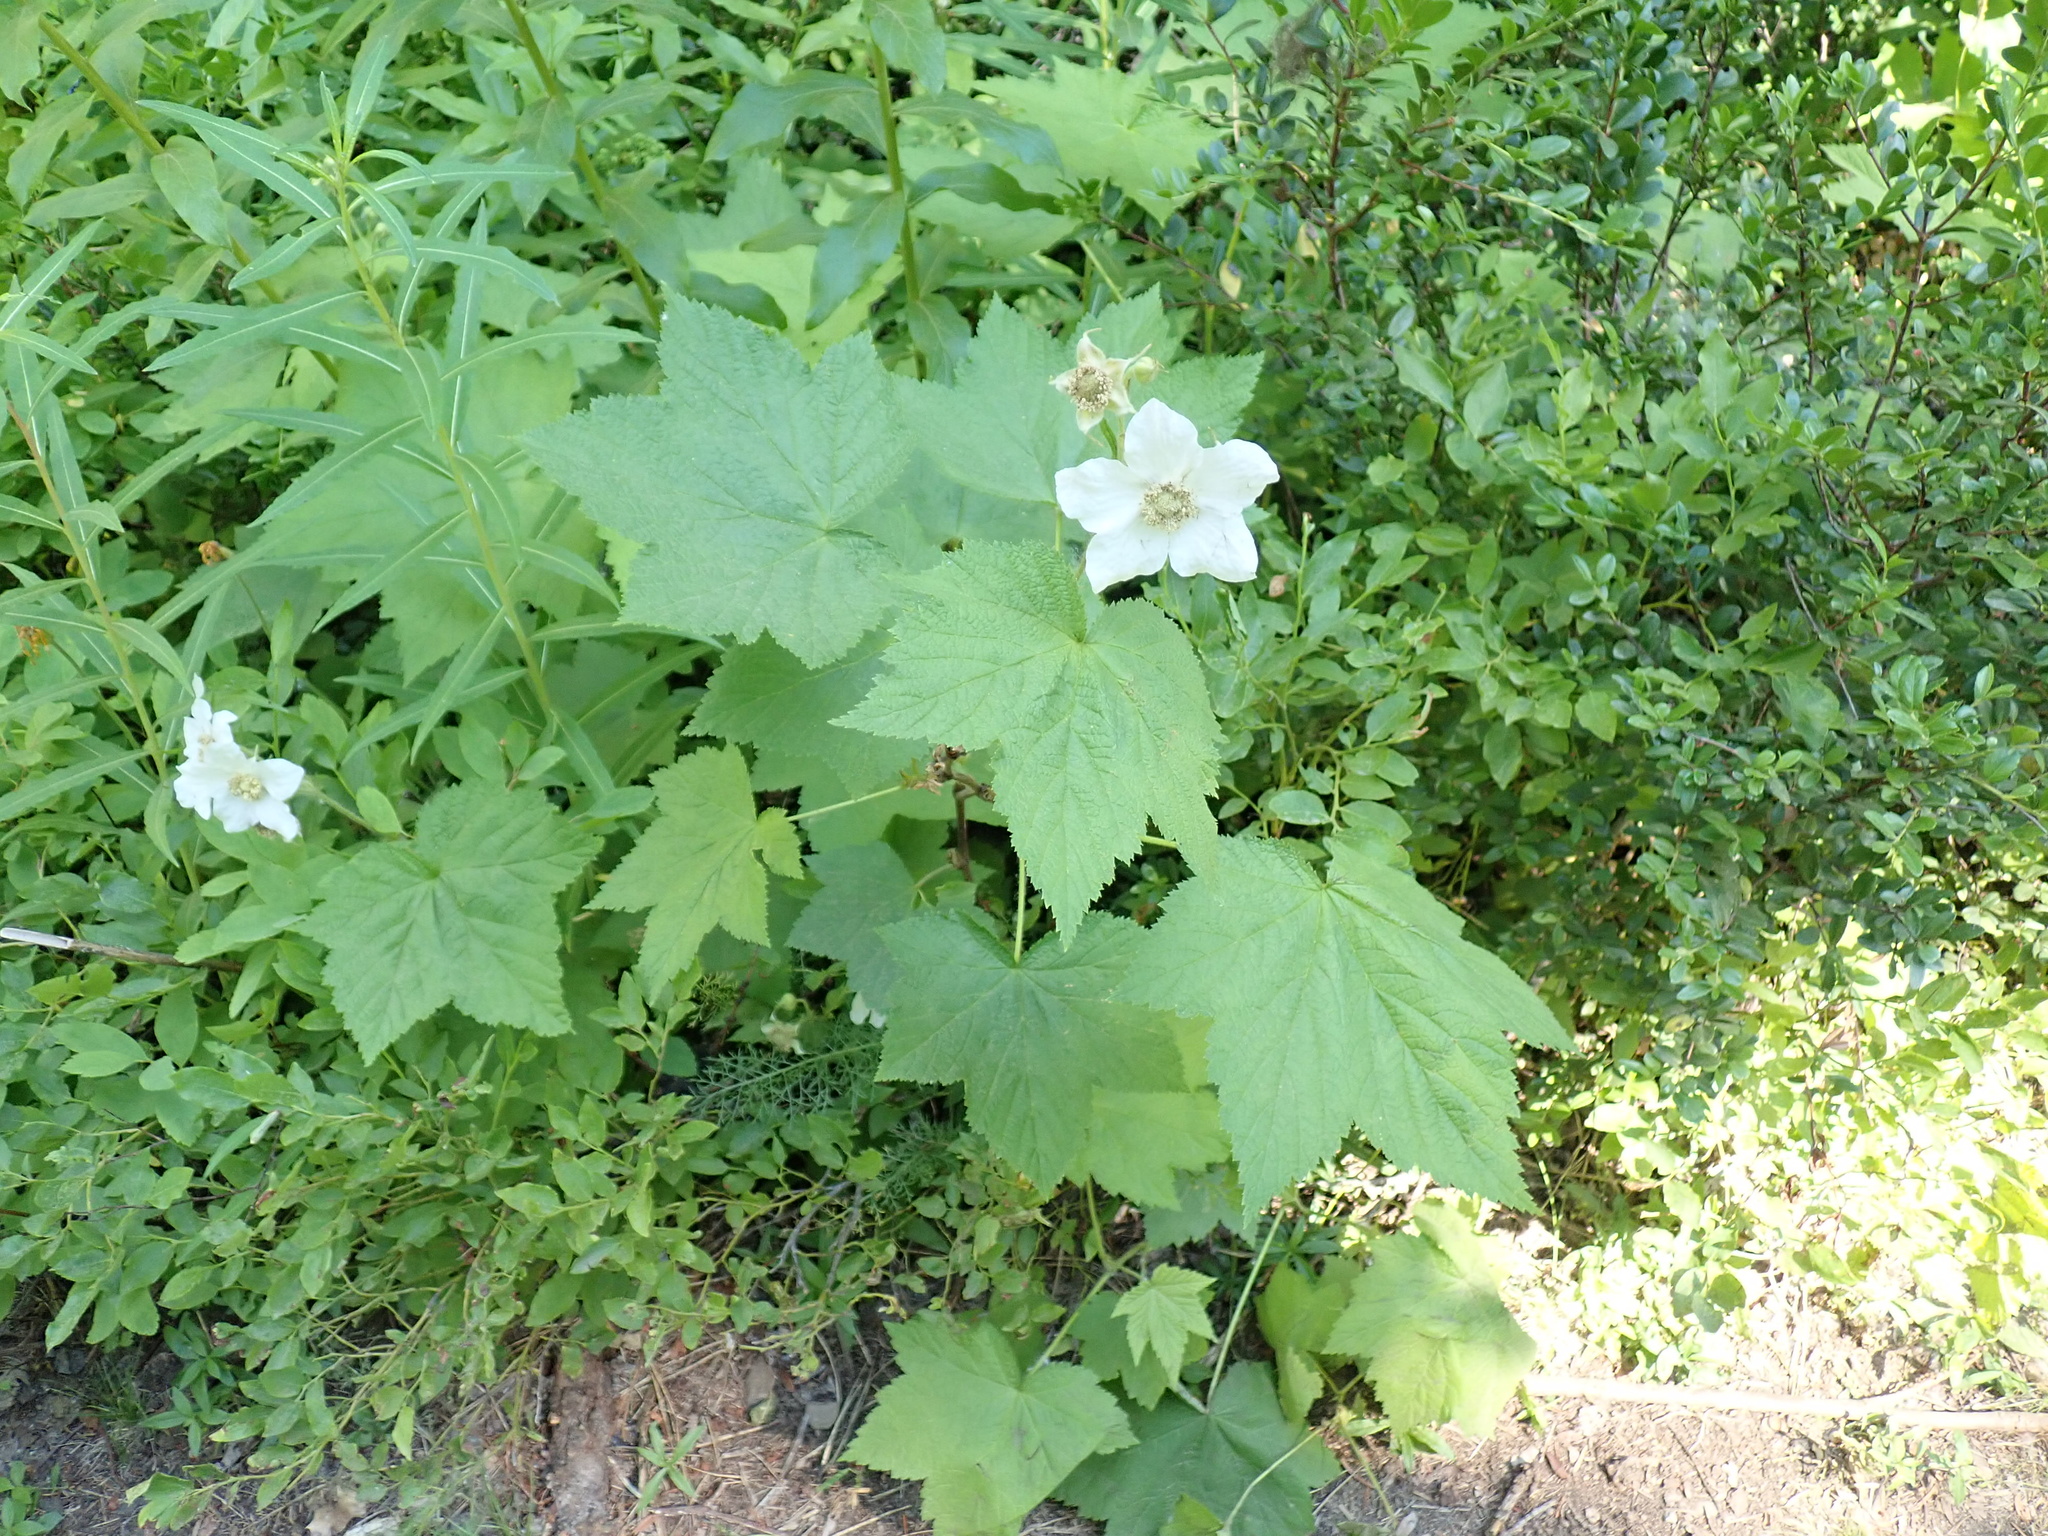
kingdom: Plantae
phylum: Tracheophyta
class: Magnoliopsida
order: Rosales
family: Rosaceae
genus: Rubus
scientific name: Rubus parviflorus
